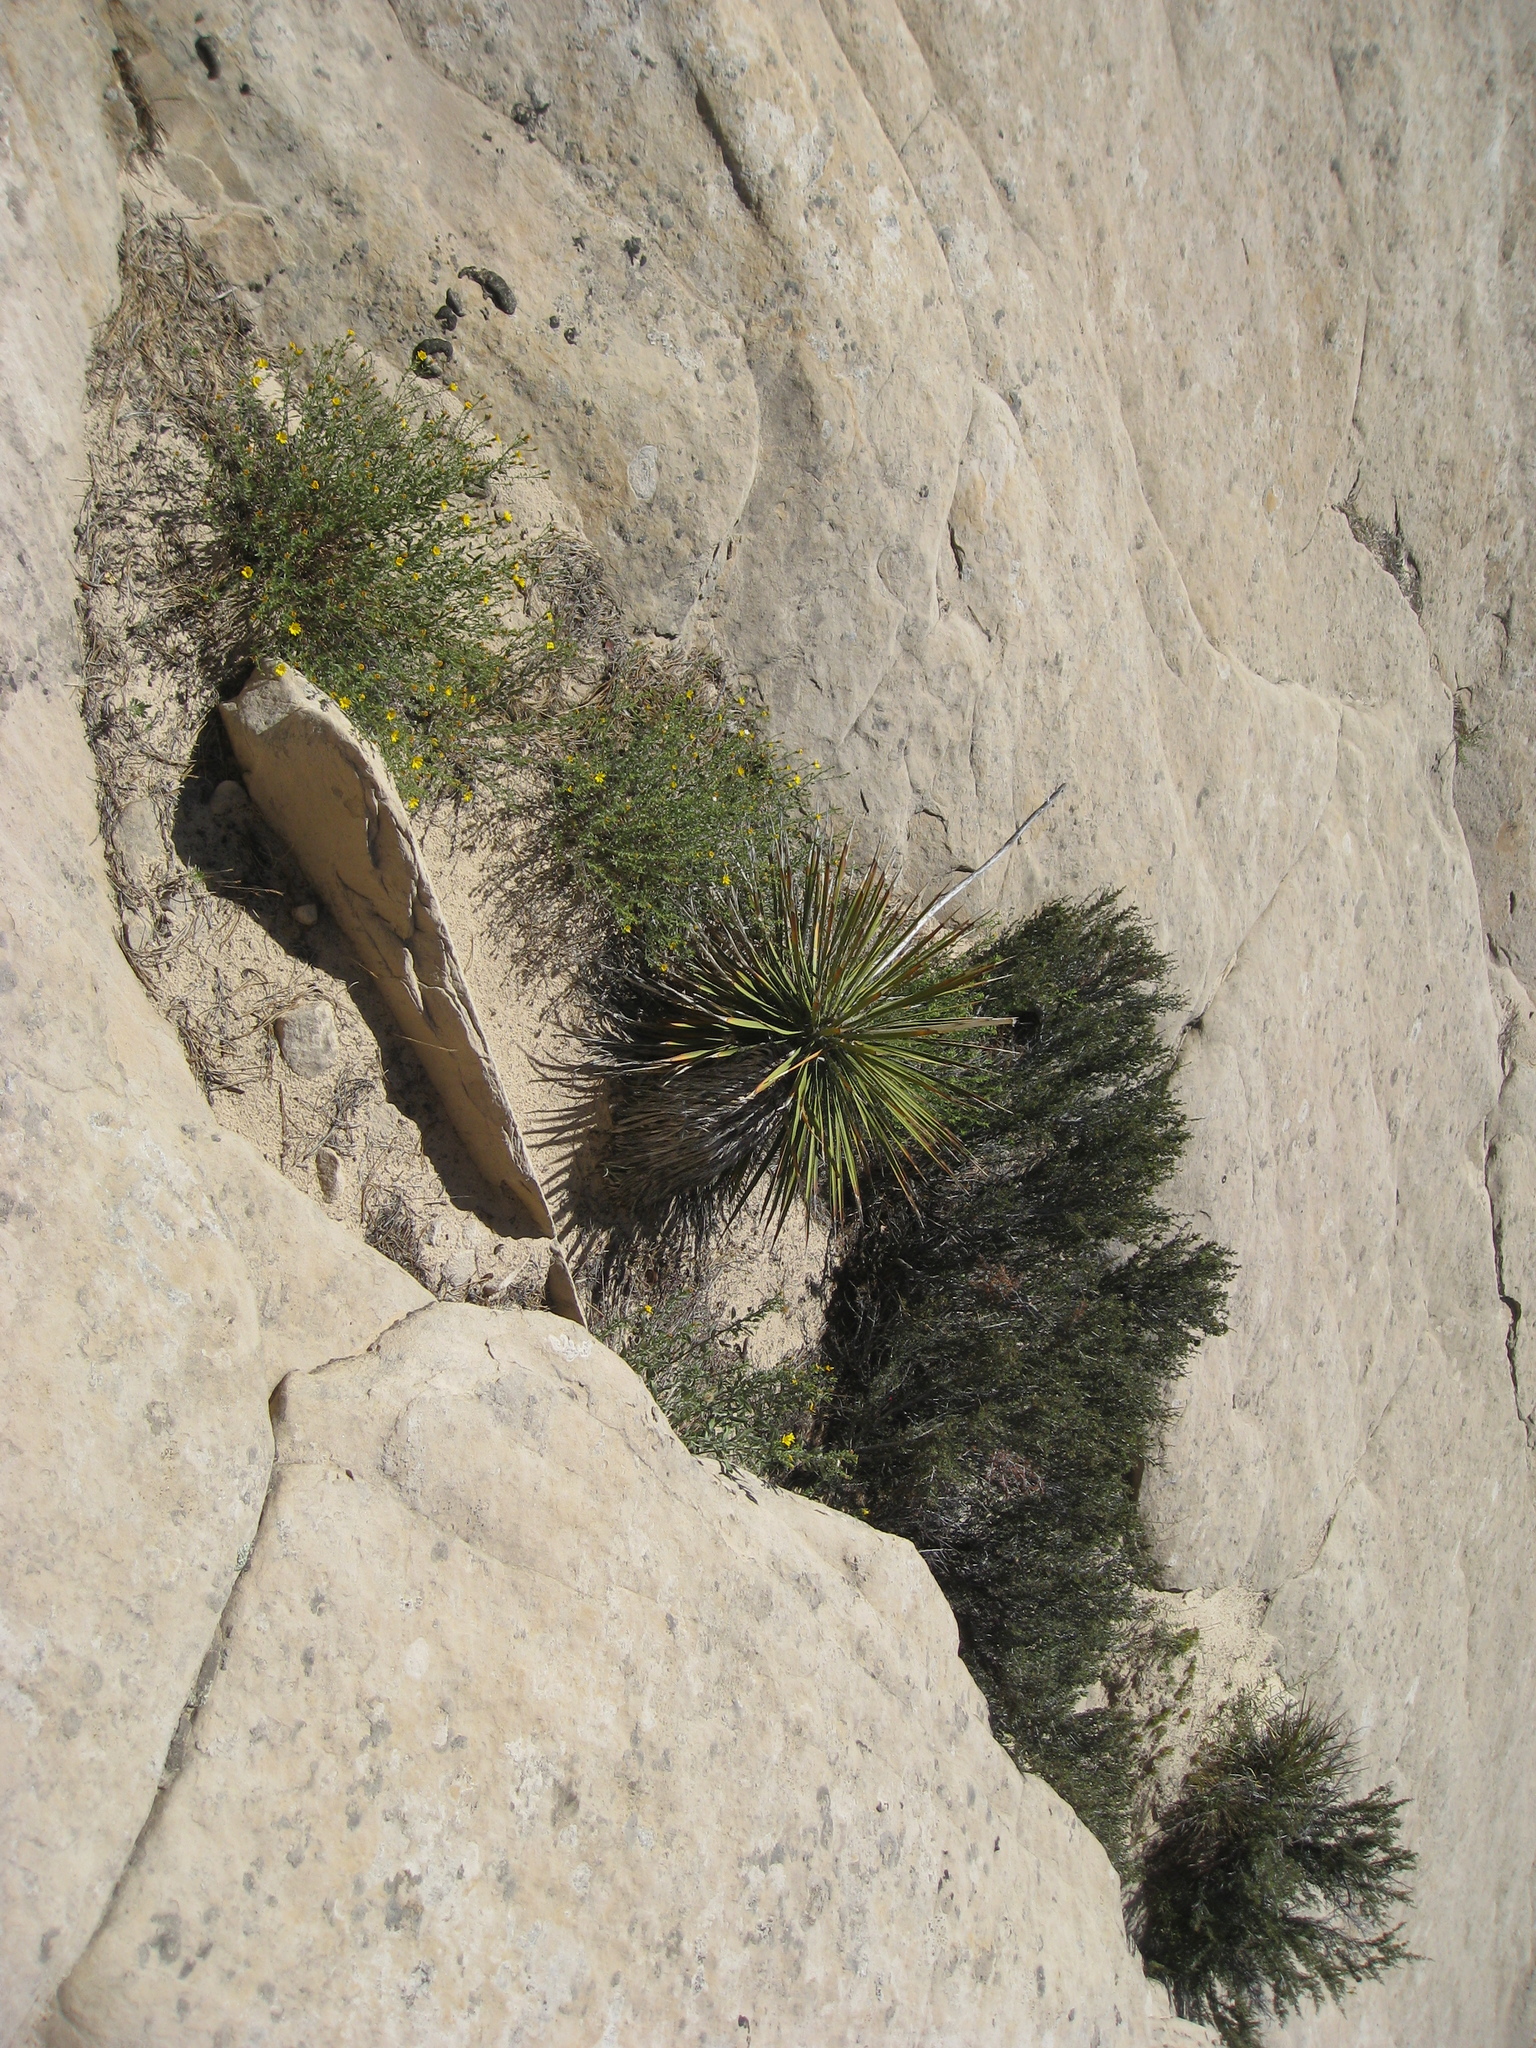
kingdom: Plantae
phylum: Tracheophyta
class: Liliopsida
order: Asparagales
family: Asparagaceae
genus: Yucca
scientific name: Yucca angustissima
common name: Narrowleaf yucca
